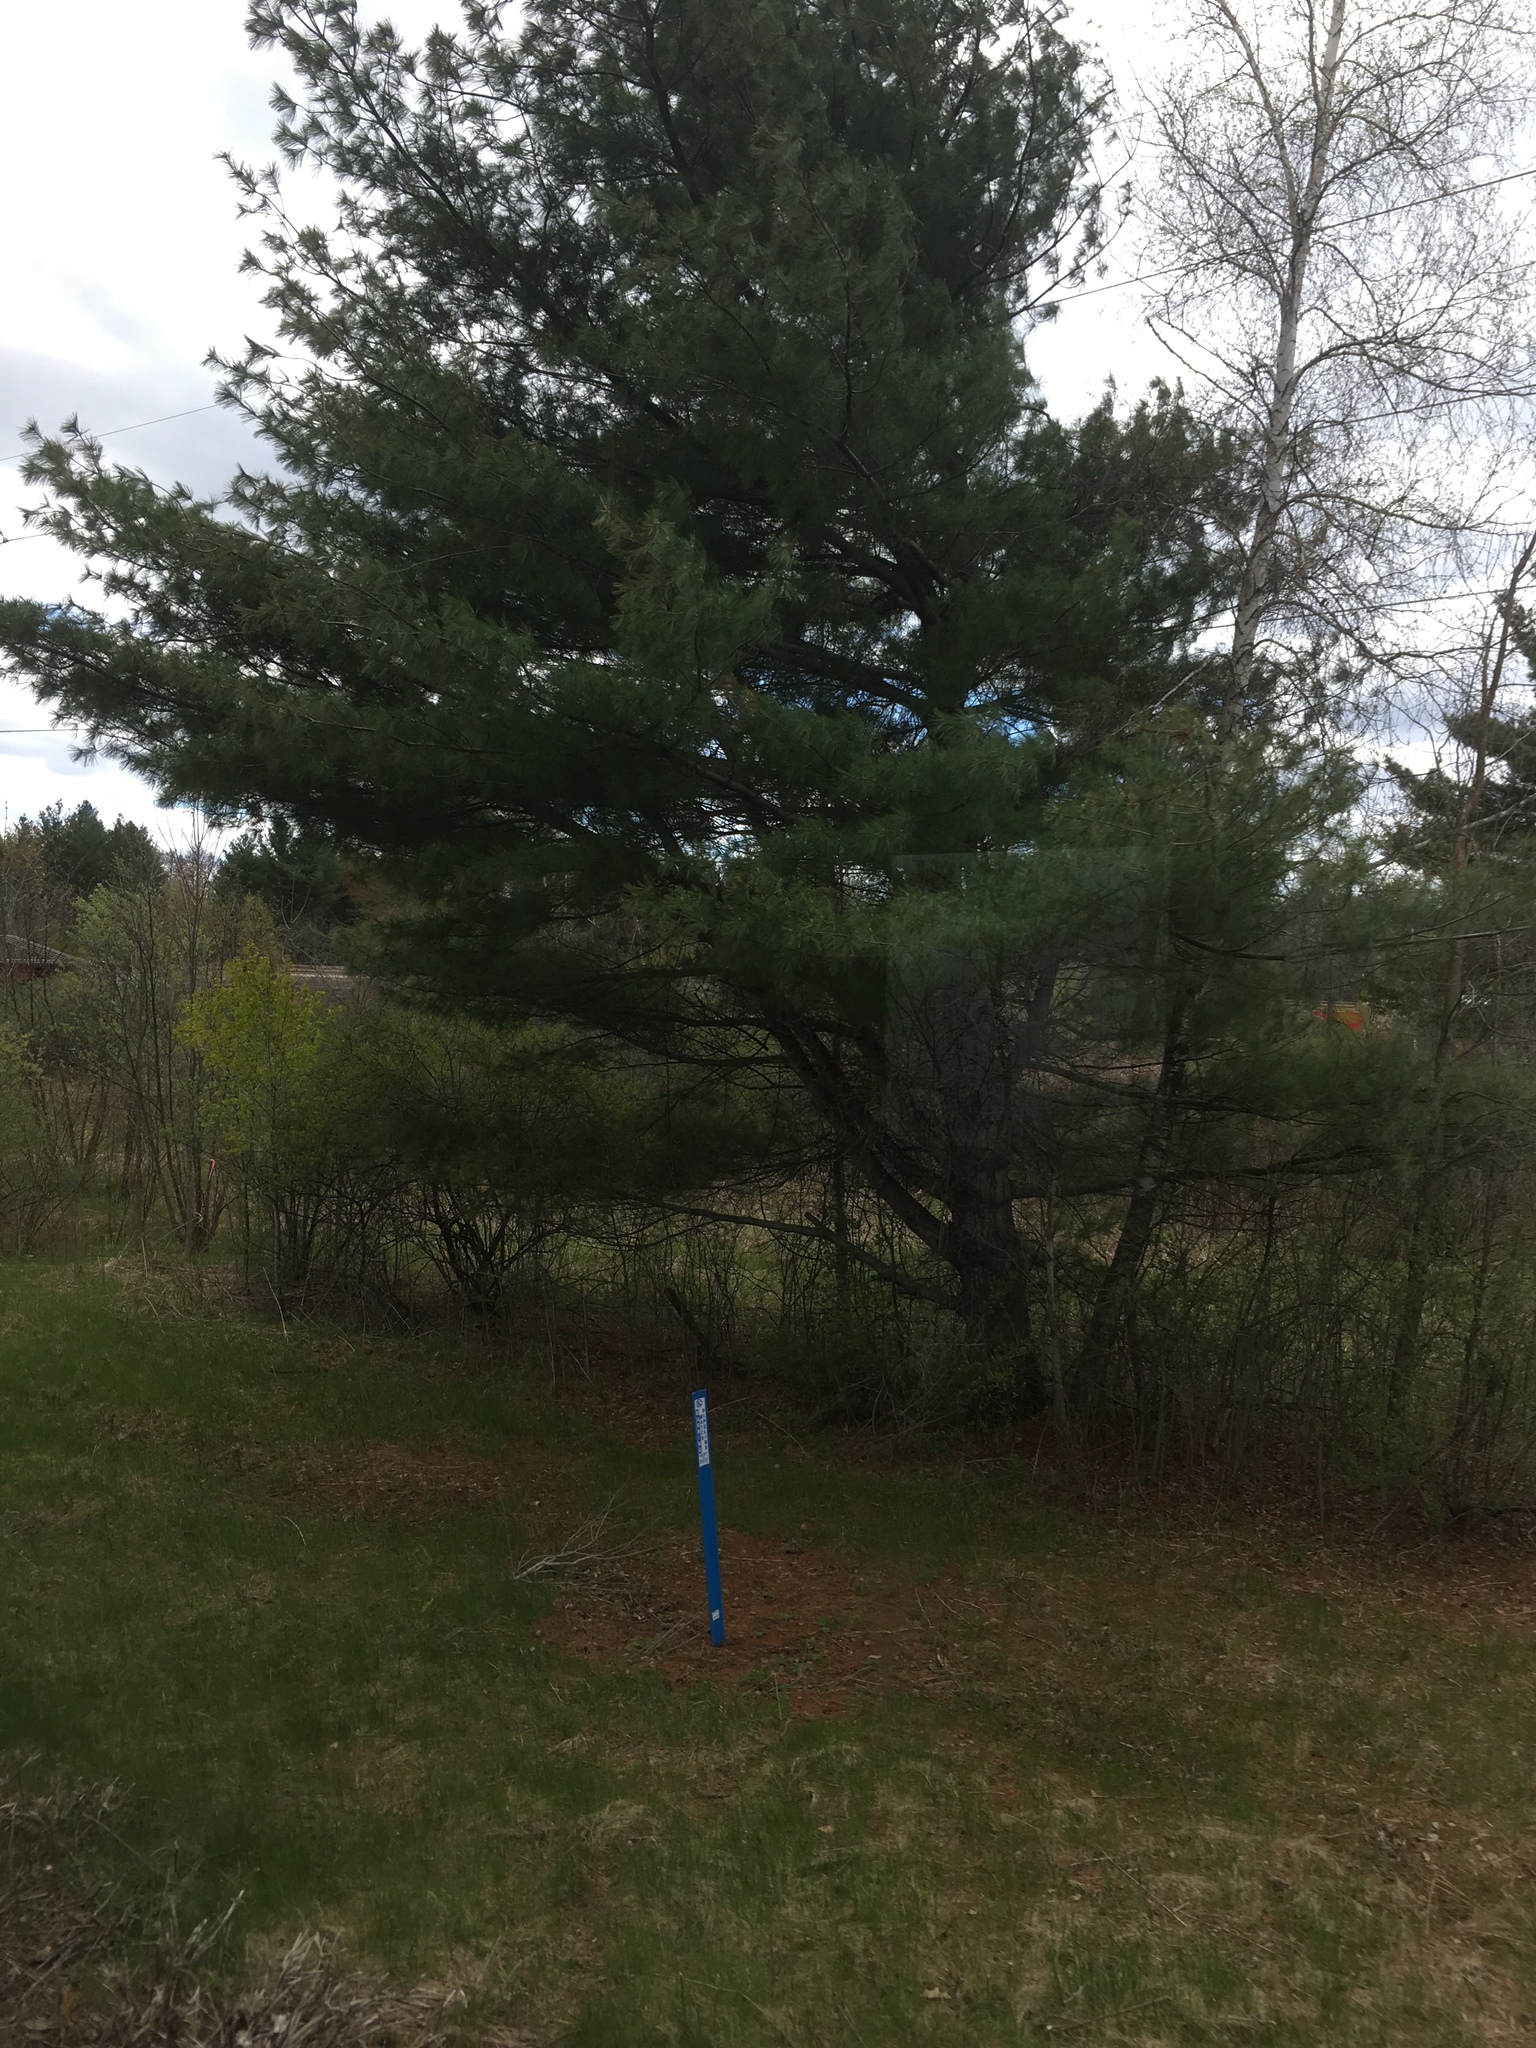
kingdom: Plantae
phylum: Tracheophyta
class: Pinopsida
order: Pinales
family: Pinaceae
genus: Pinus
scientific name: Pinus strobus
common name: Weymouth pine
